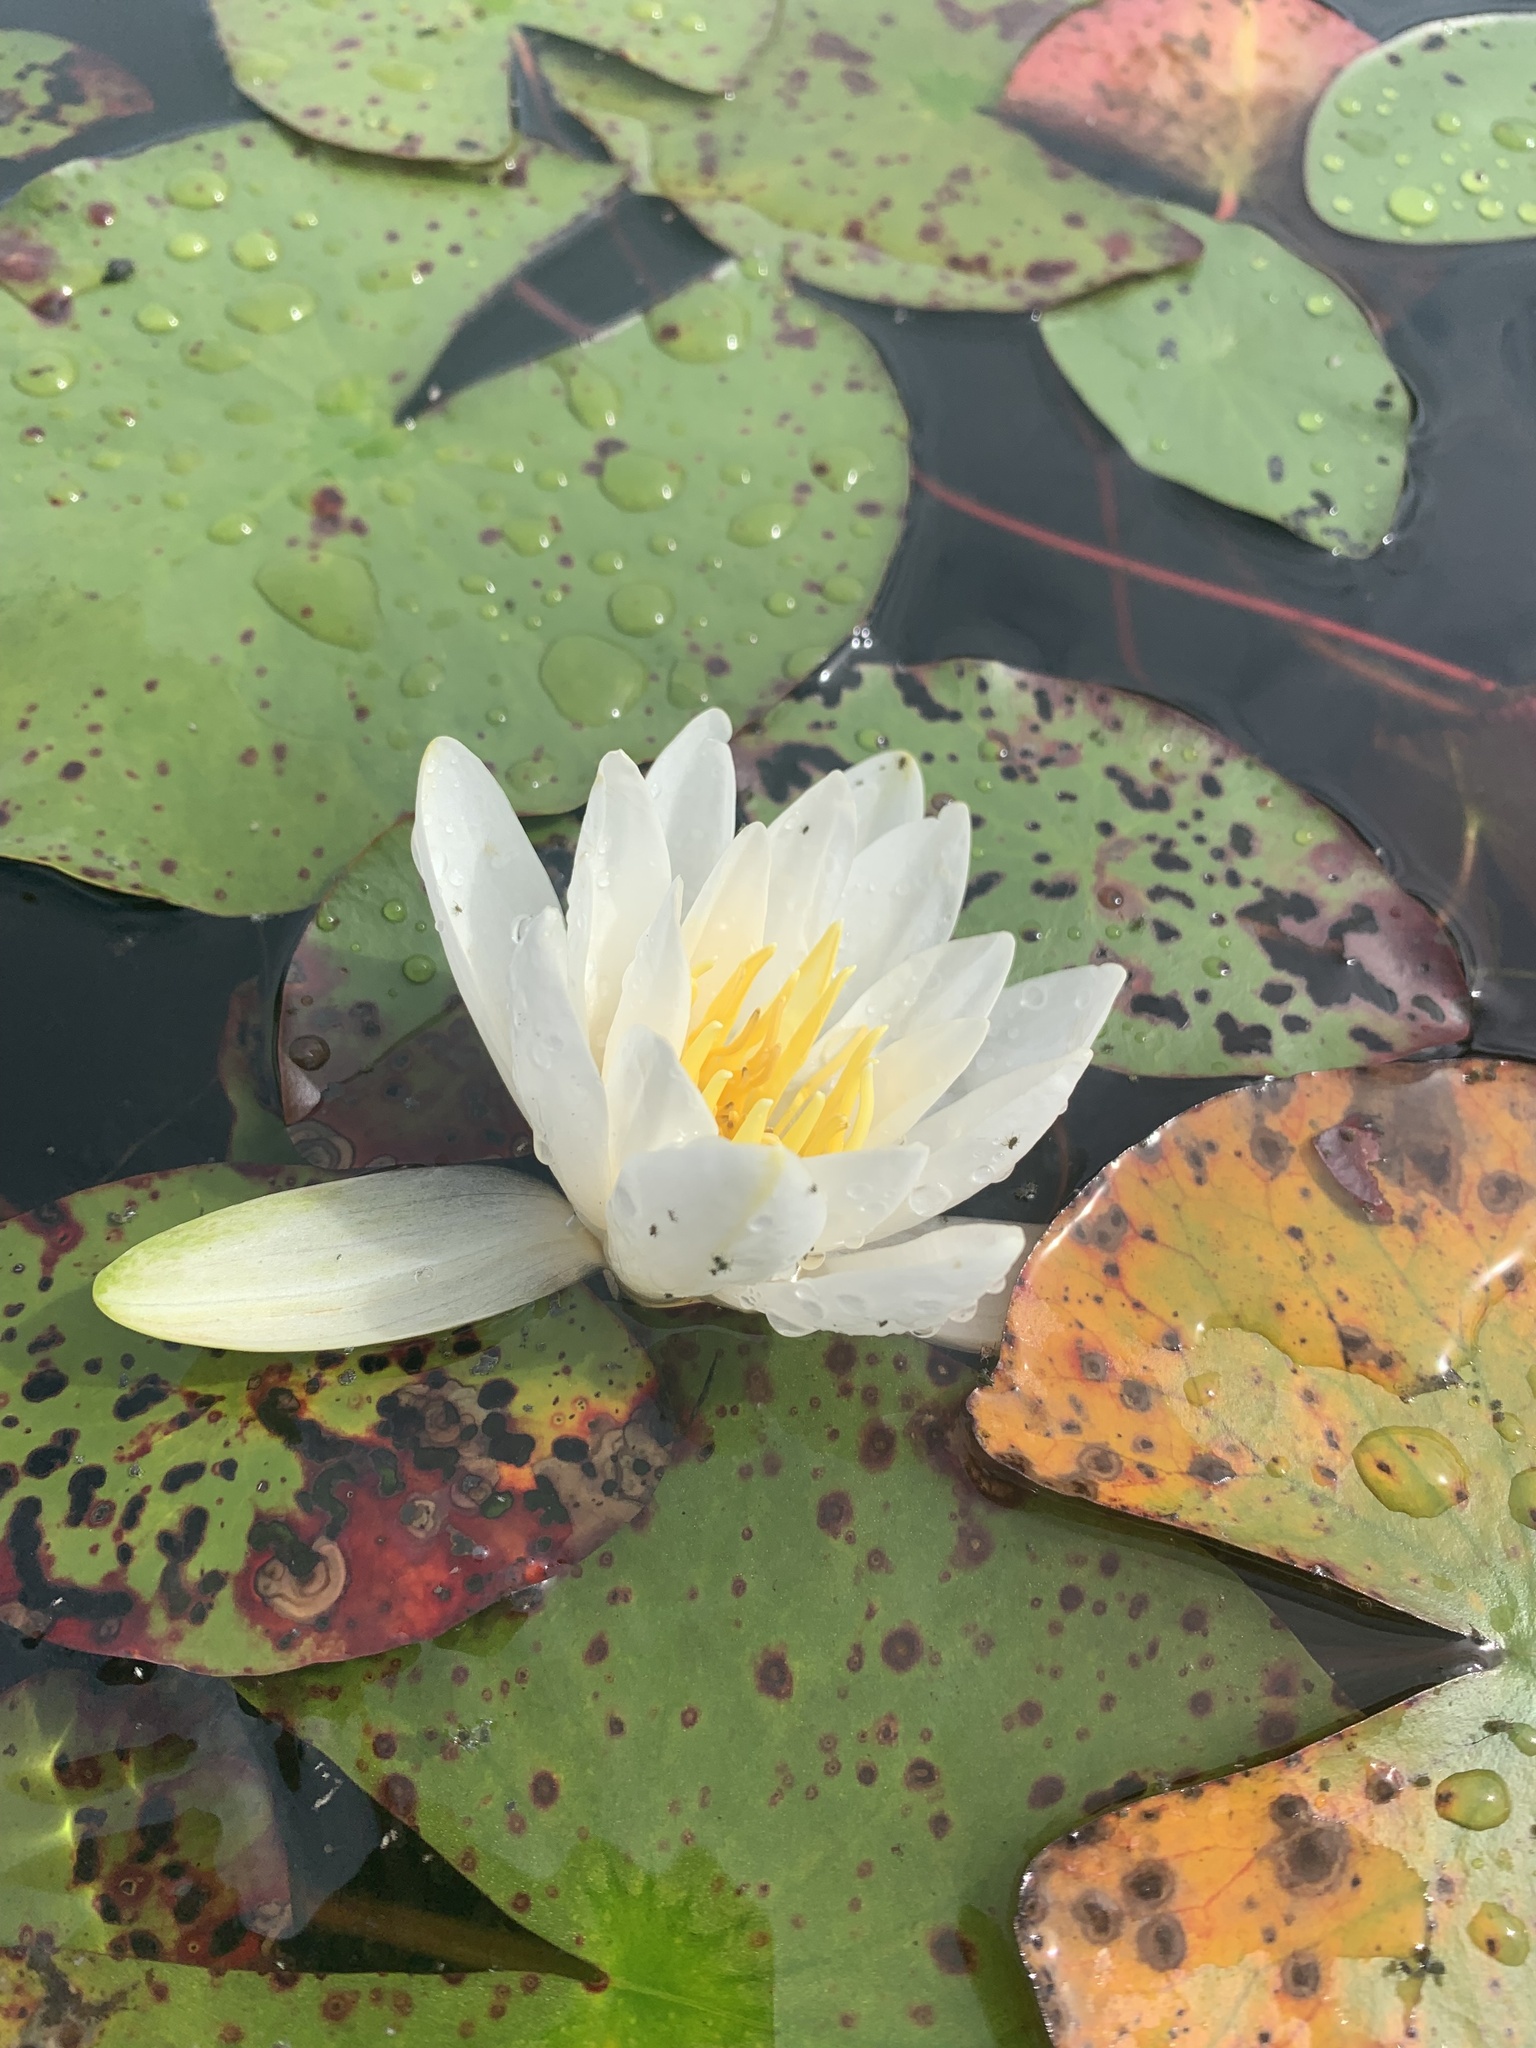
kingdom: Plantae
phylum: Tracheophyta
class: Magnoliopsida
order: Nymphaeales
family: Nymphaeaceae
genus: Nymphaea
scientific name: Nymphaea odorata
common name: Fragrant water-lily
